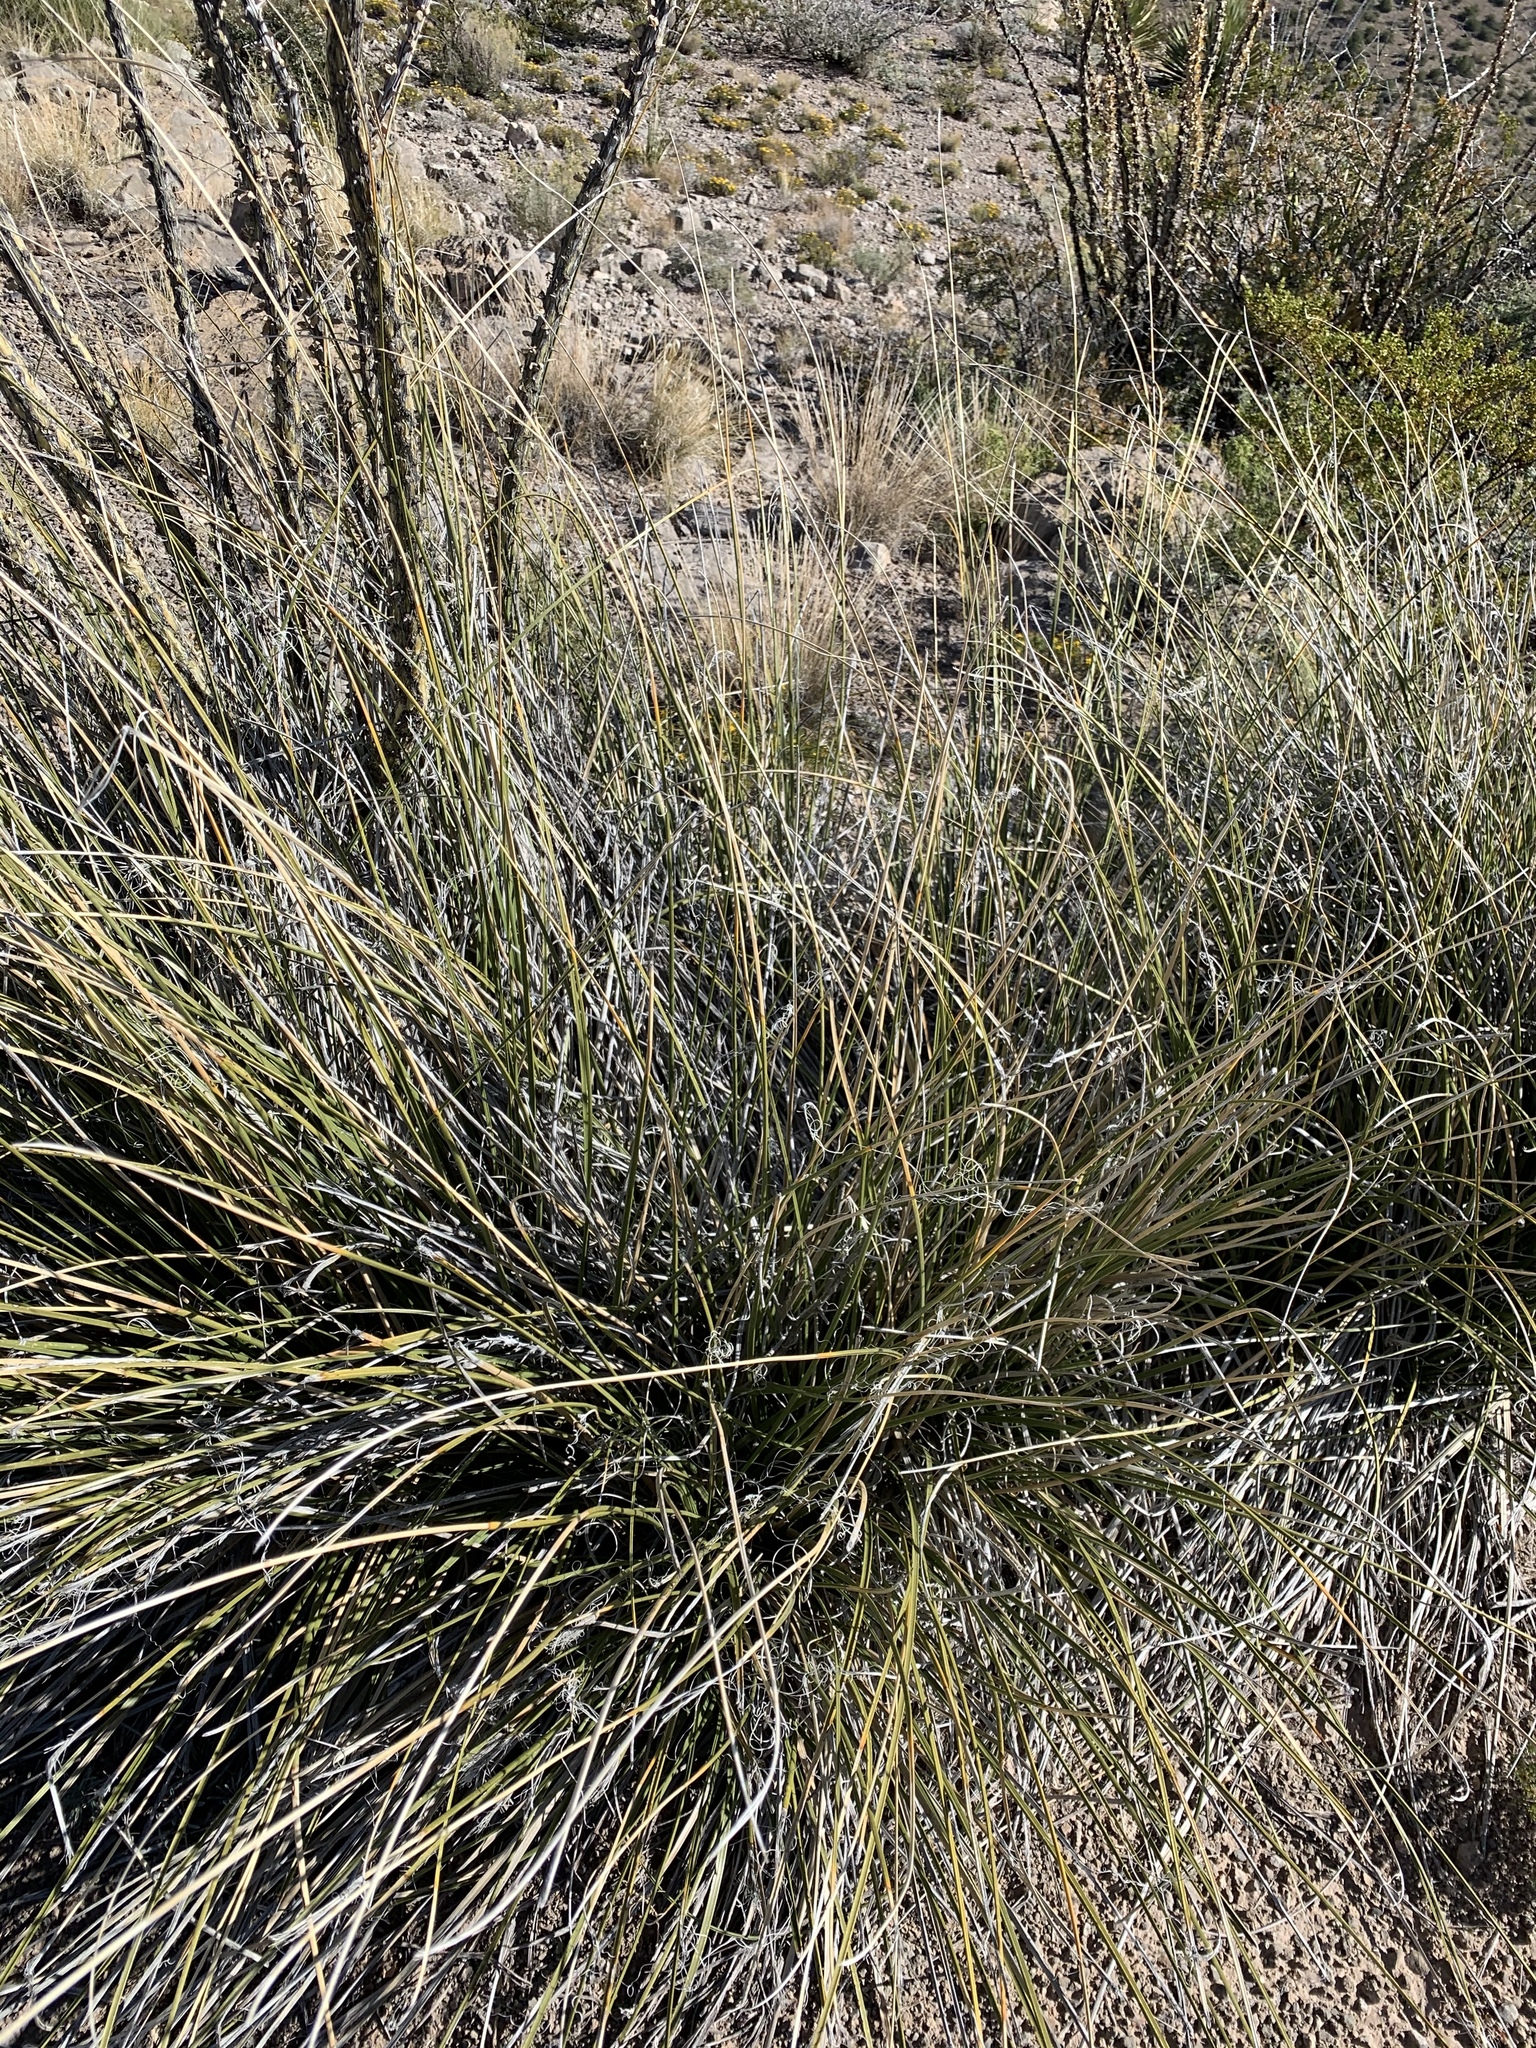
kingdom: Plantae
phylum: Tracheophyta
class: Liliopsida
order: Asparagales
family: Asparagaceae
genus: Nolina
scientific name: Nolina texana
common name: Texas sacahuiste
